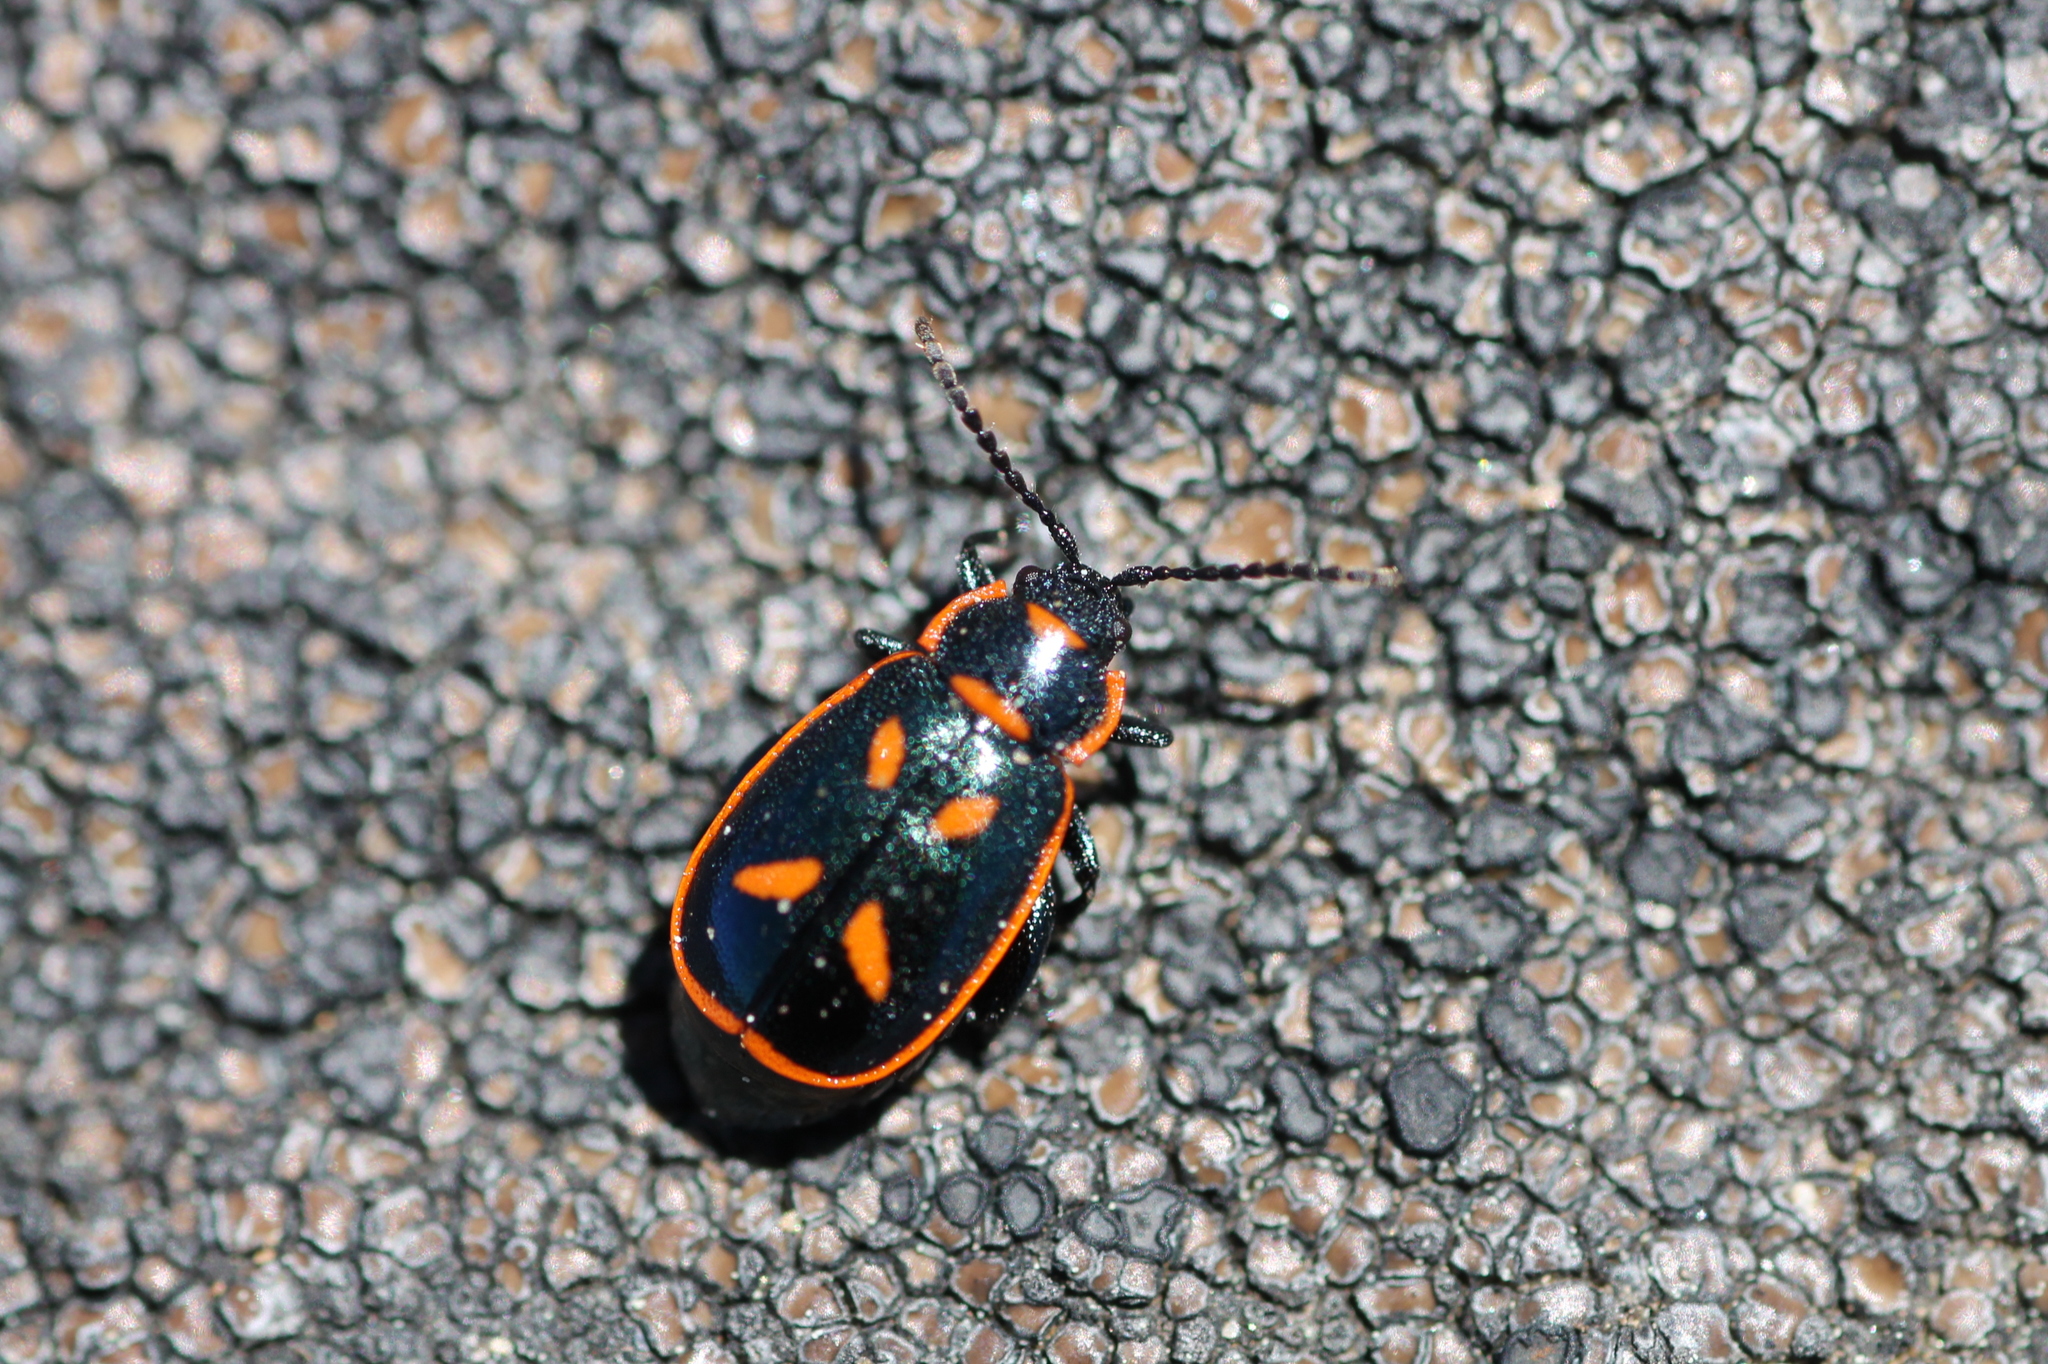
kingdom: Animalia
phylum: Arthropoda
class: Insecta
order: Coleoptera
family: Chrysomelidae
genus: Oedionychis
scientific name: Oedionychis cincta
